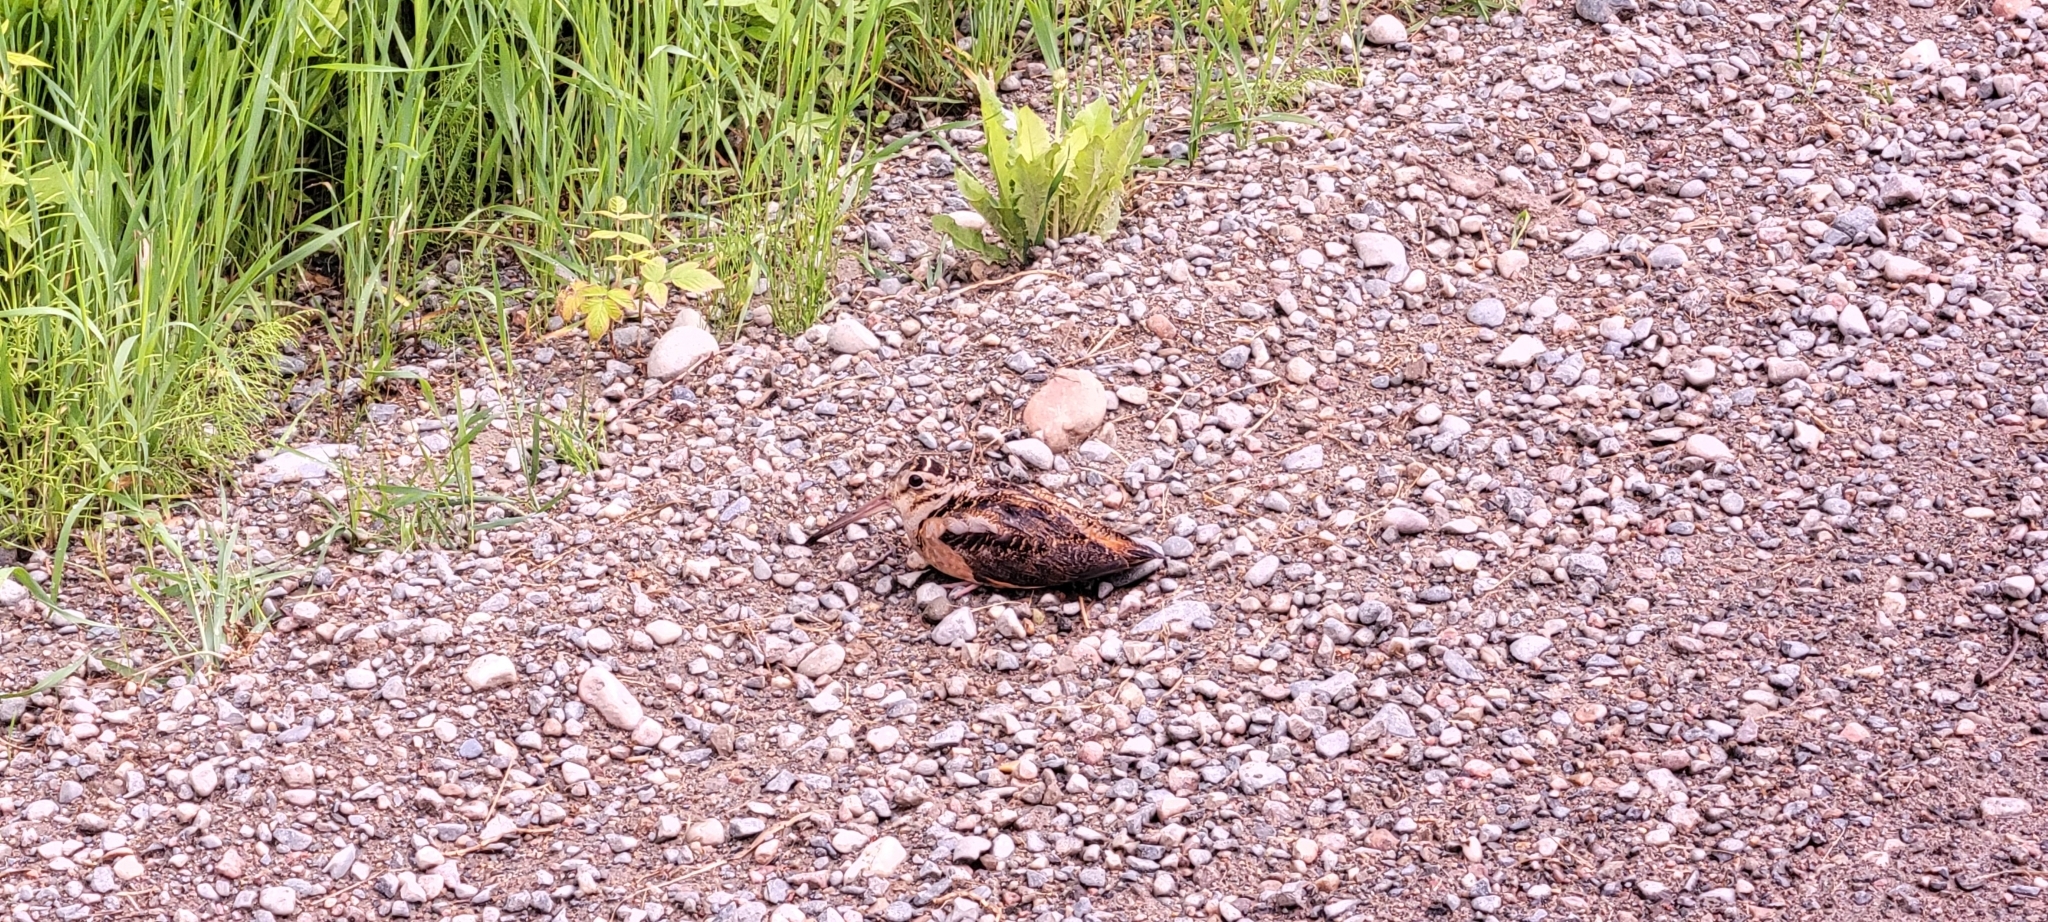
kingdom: Animalia
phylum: Chordata
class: Aves
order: Charadriiformes
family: Scolopacidae
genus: Scolopax
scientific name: Scolopax minor
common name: American woodcock
